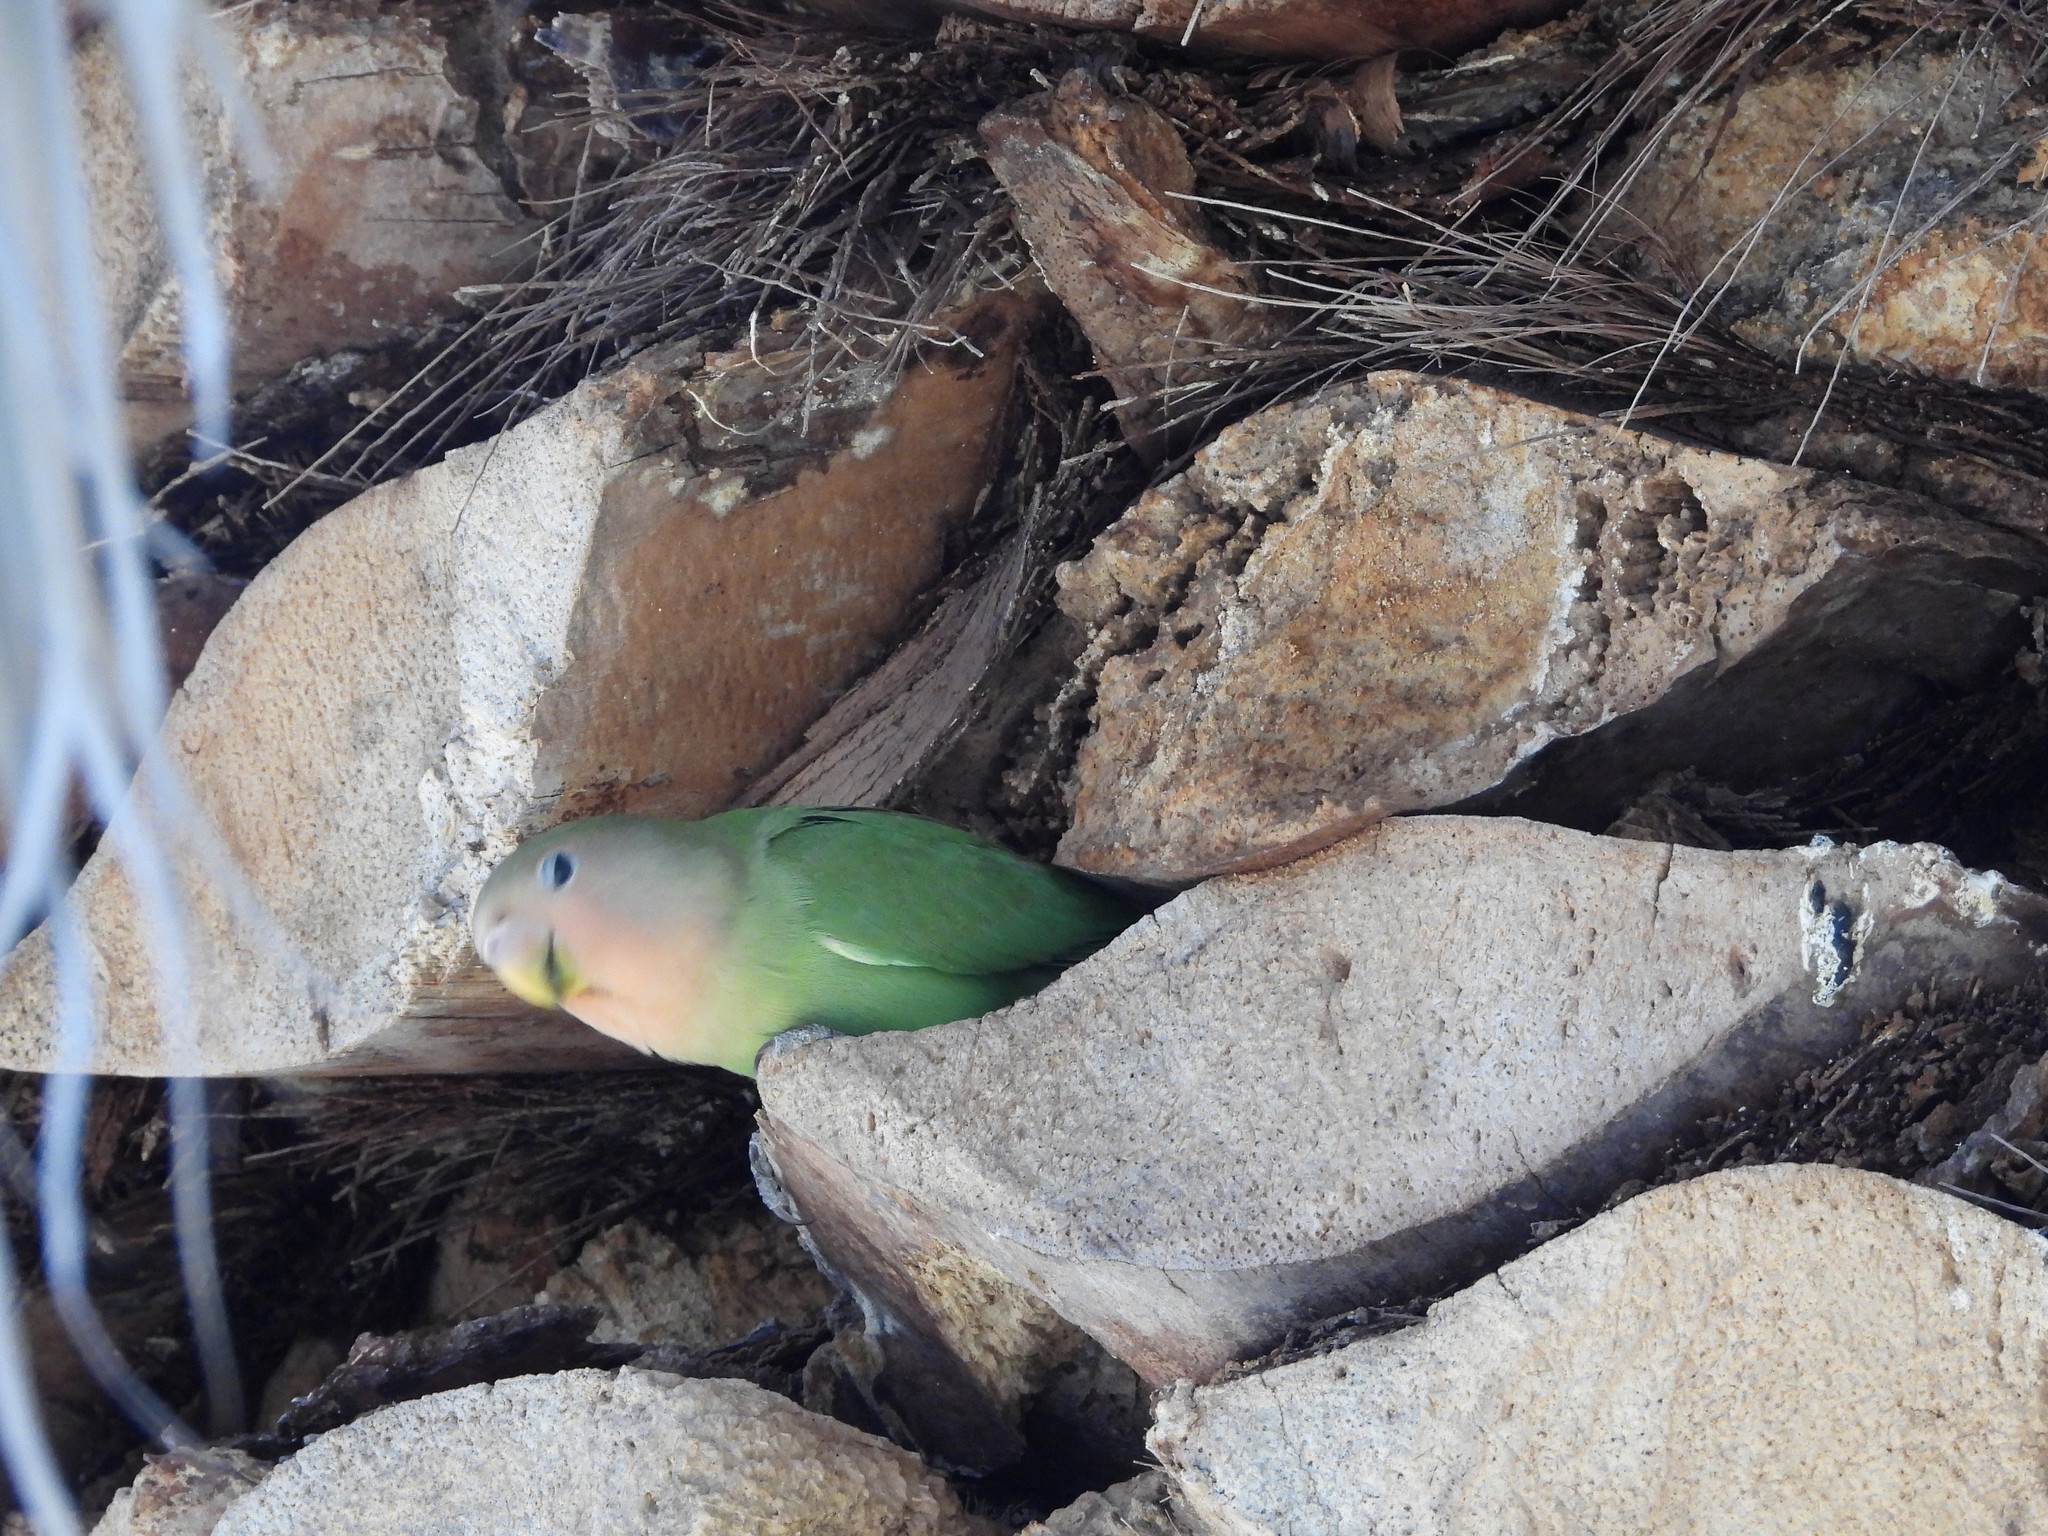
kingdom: Animalia
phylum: Chordata
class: Aves
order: Psittaciformes
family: Psittacidae
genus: Agapornis
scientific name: Agapornis roseicollis
